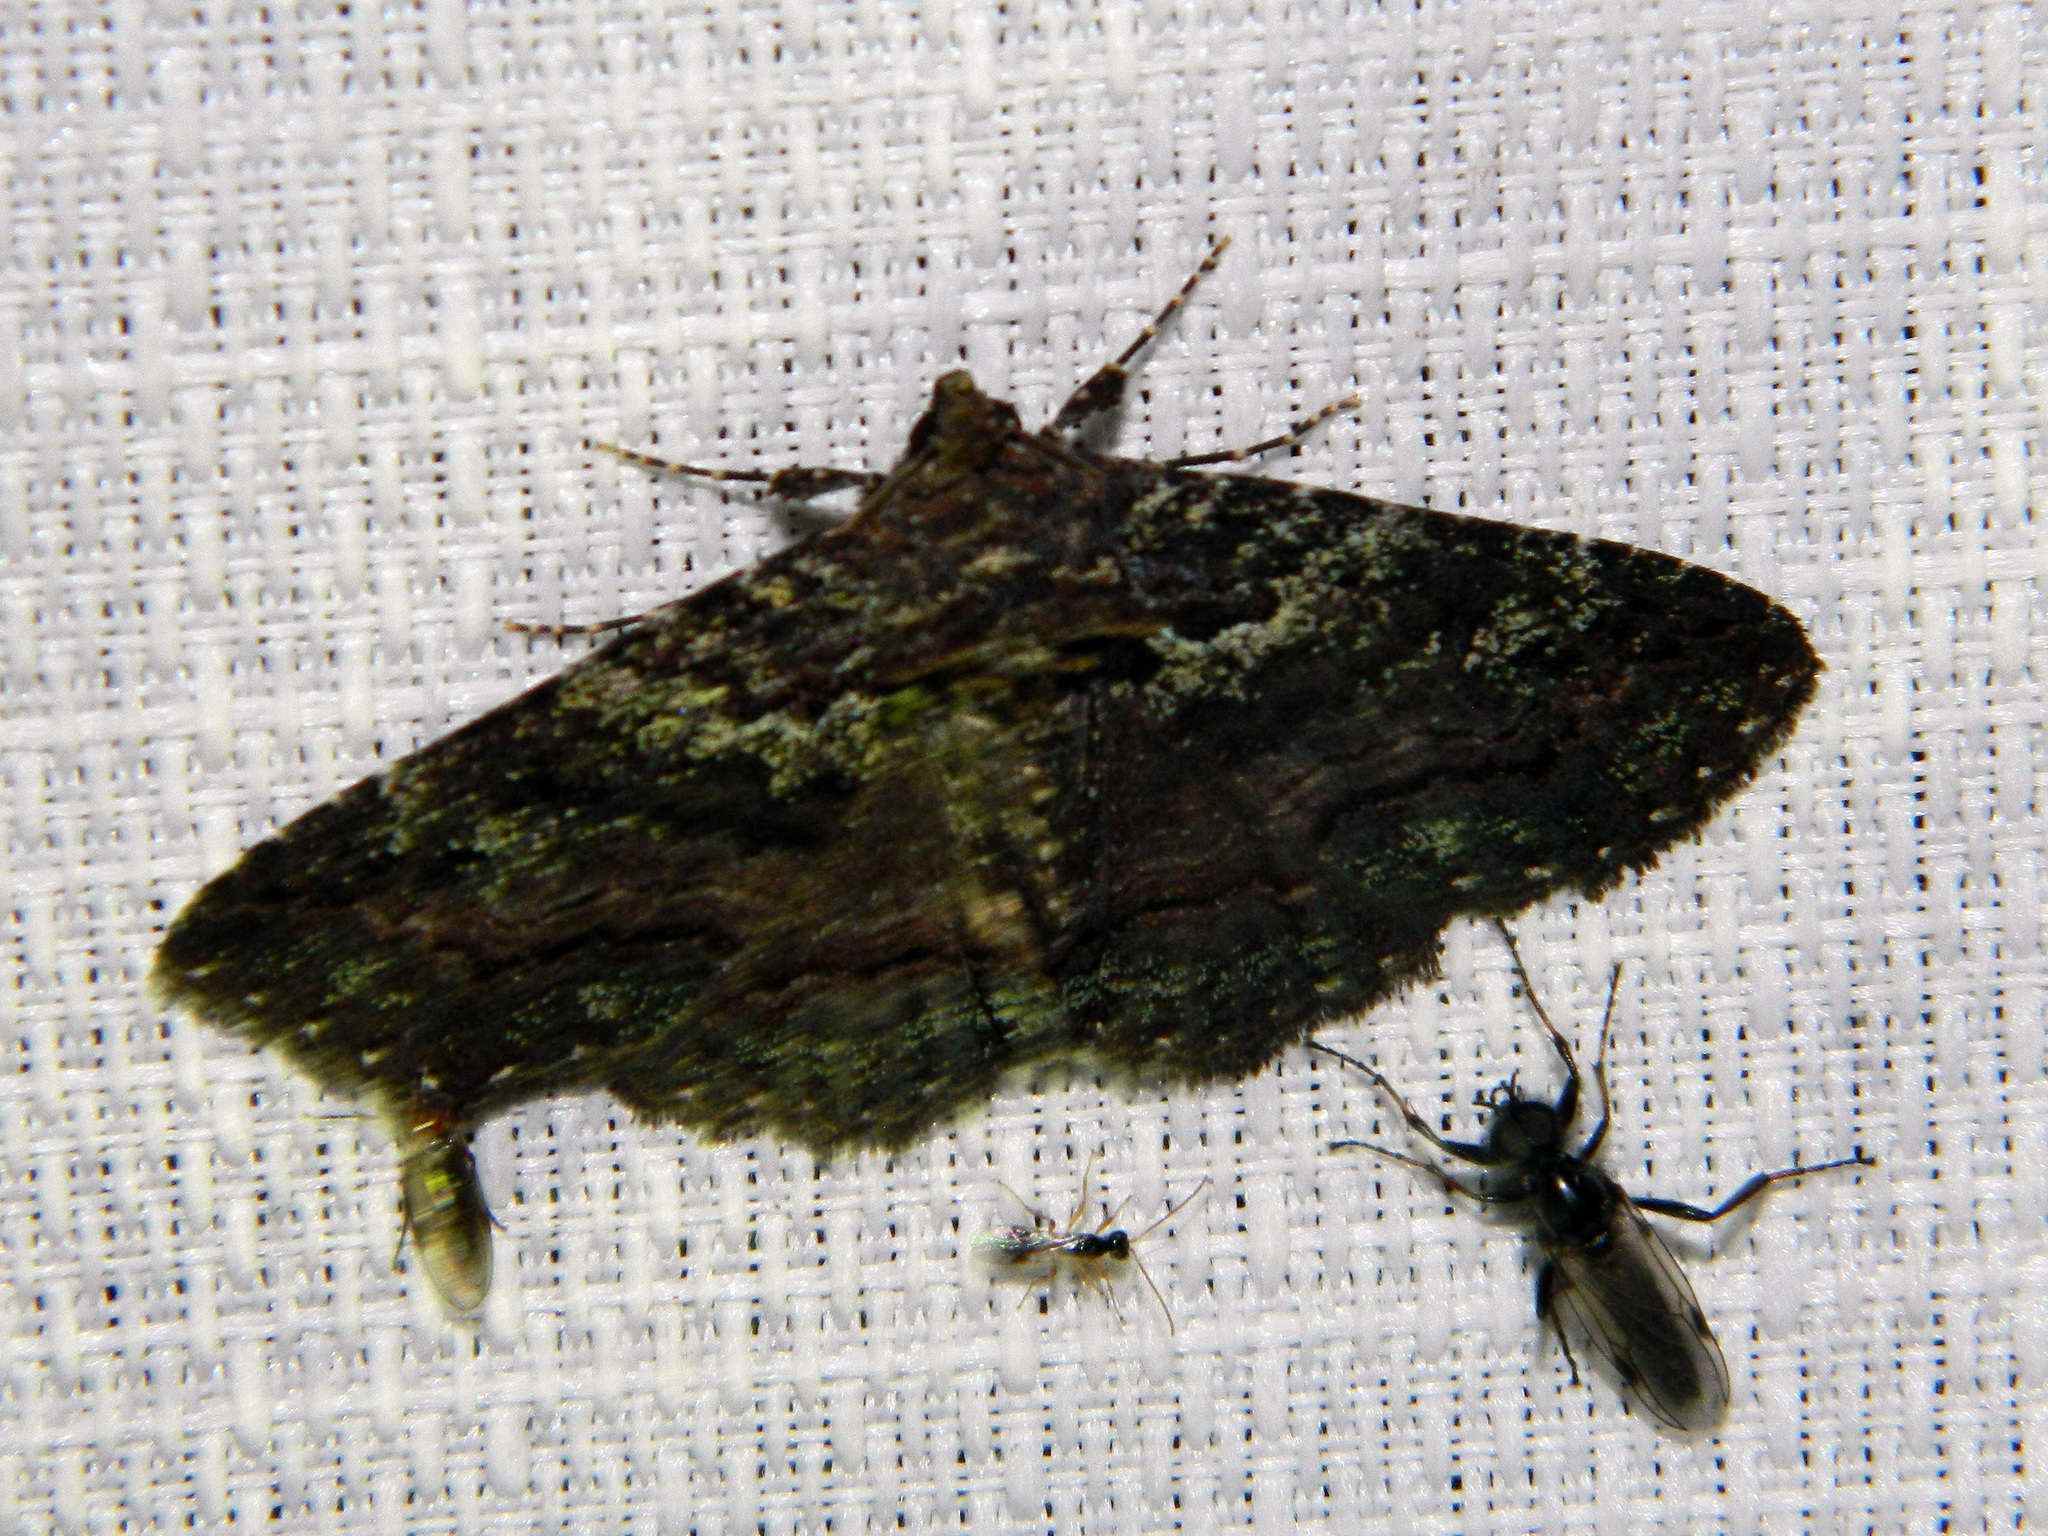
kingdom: Animalia
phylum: Arthropoda
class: Insecta
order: Lepidoptera
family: Erebidae
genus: Zale
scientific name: Zale aeruginosa
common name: Green-dusted zale moth
